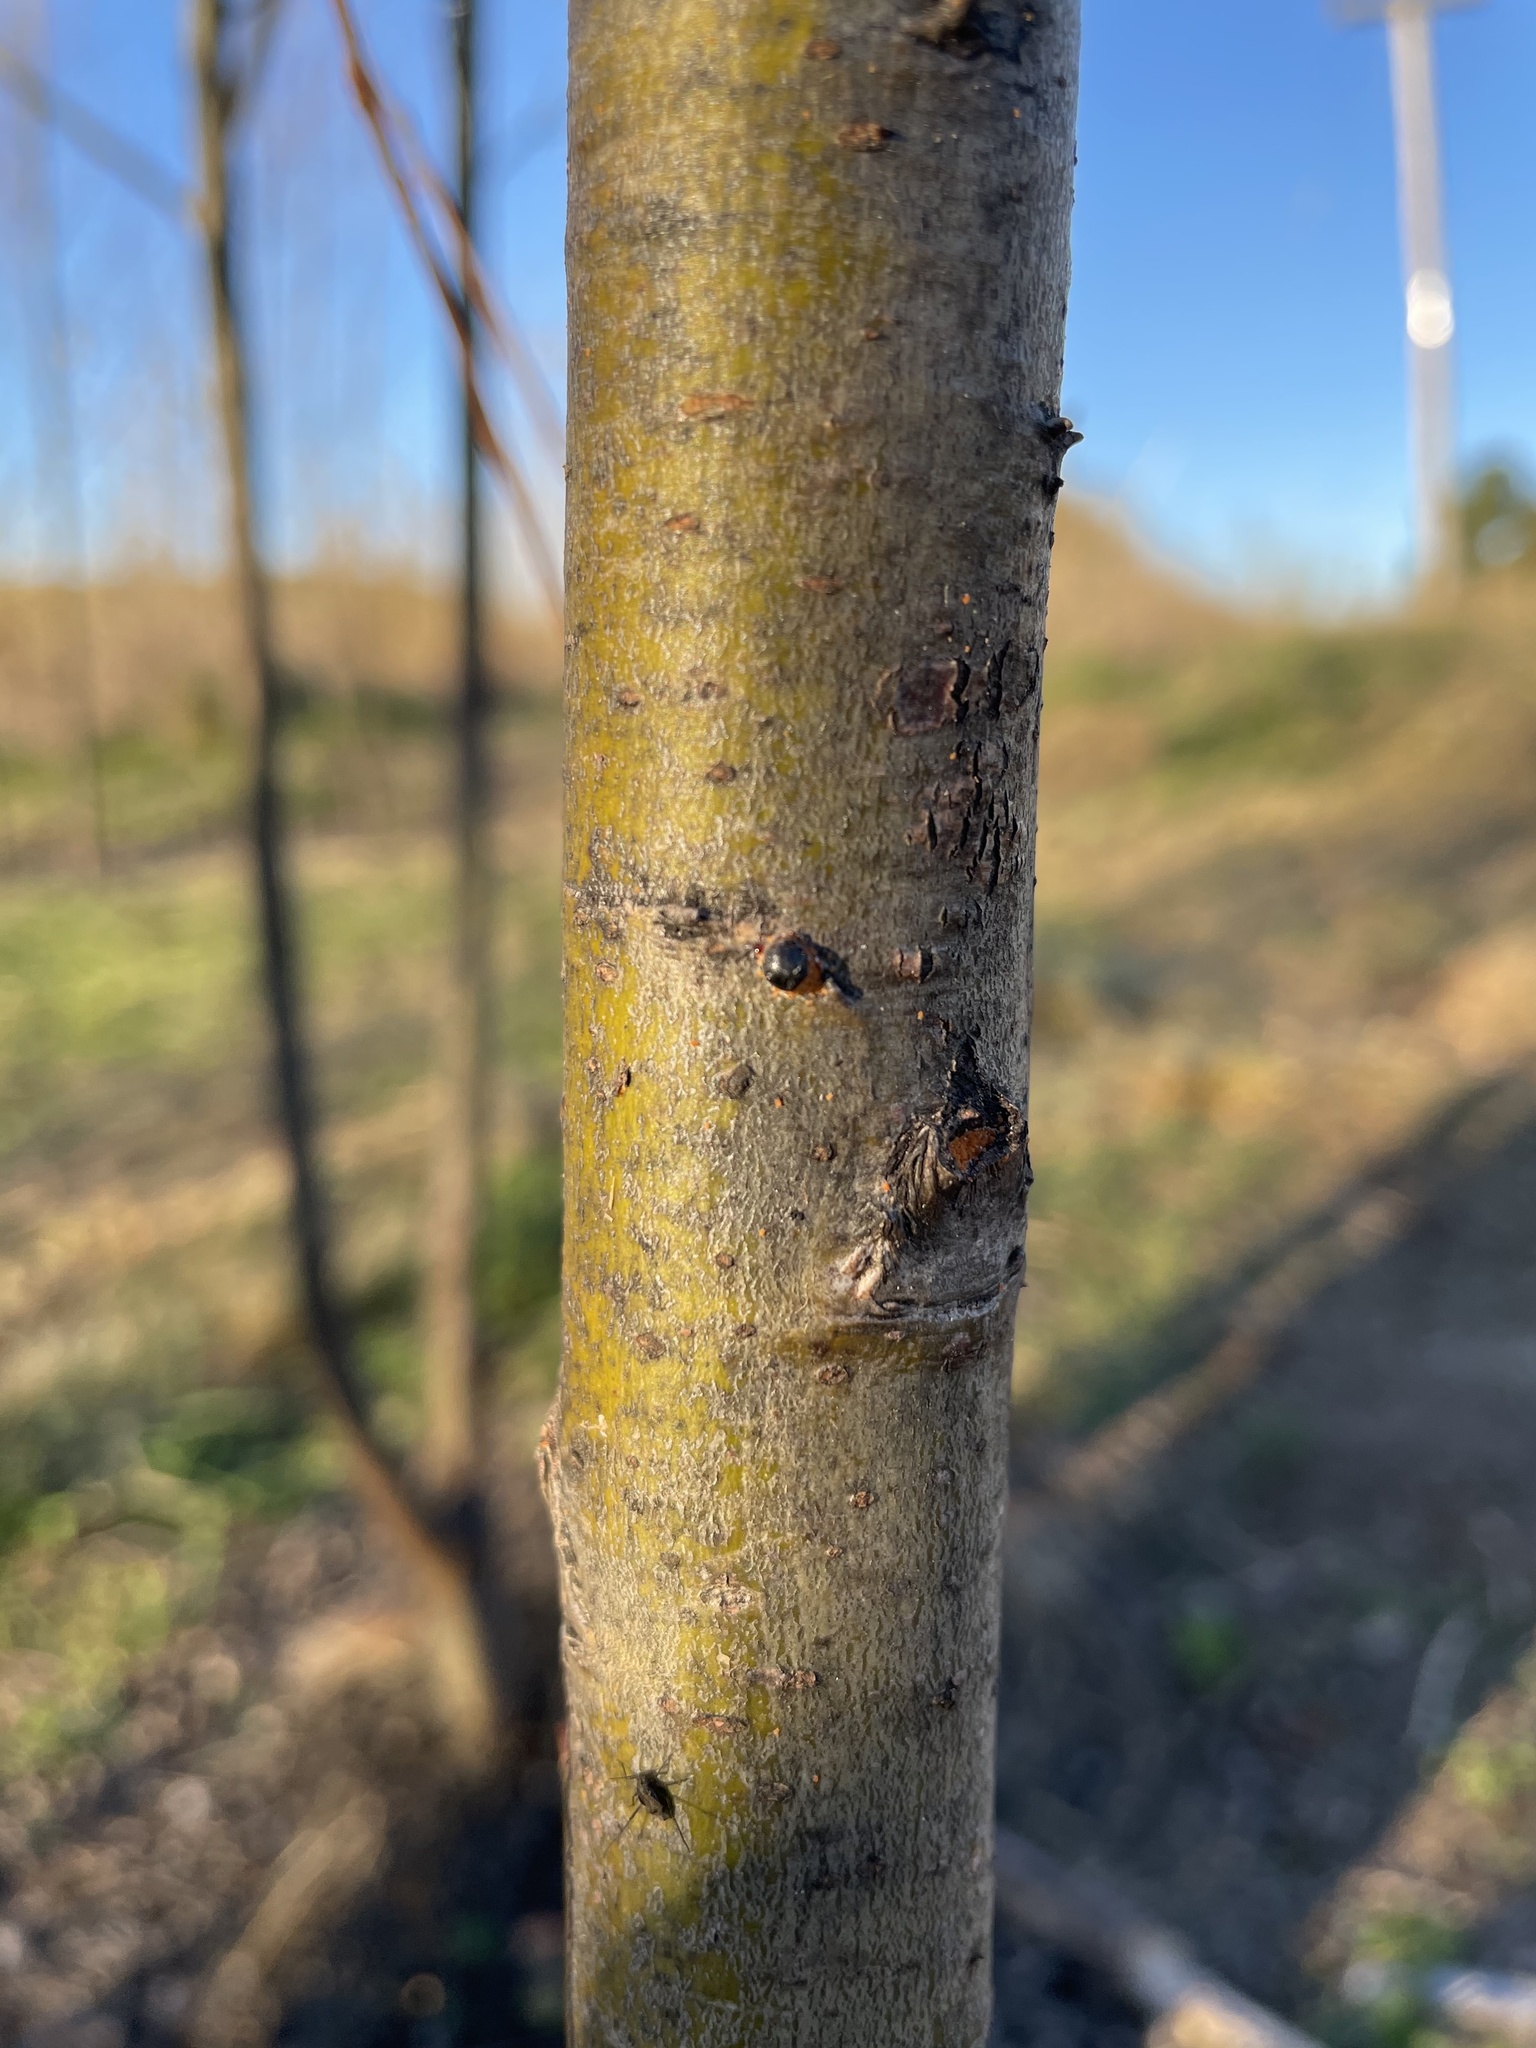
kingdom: Animalia
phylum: Arthropoda
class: Insecta
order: Hymenoptera
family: Braconidae
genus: Pauesia
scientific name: Pauesia nigrovaria
